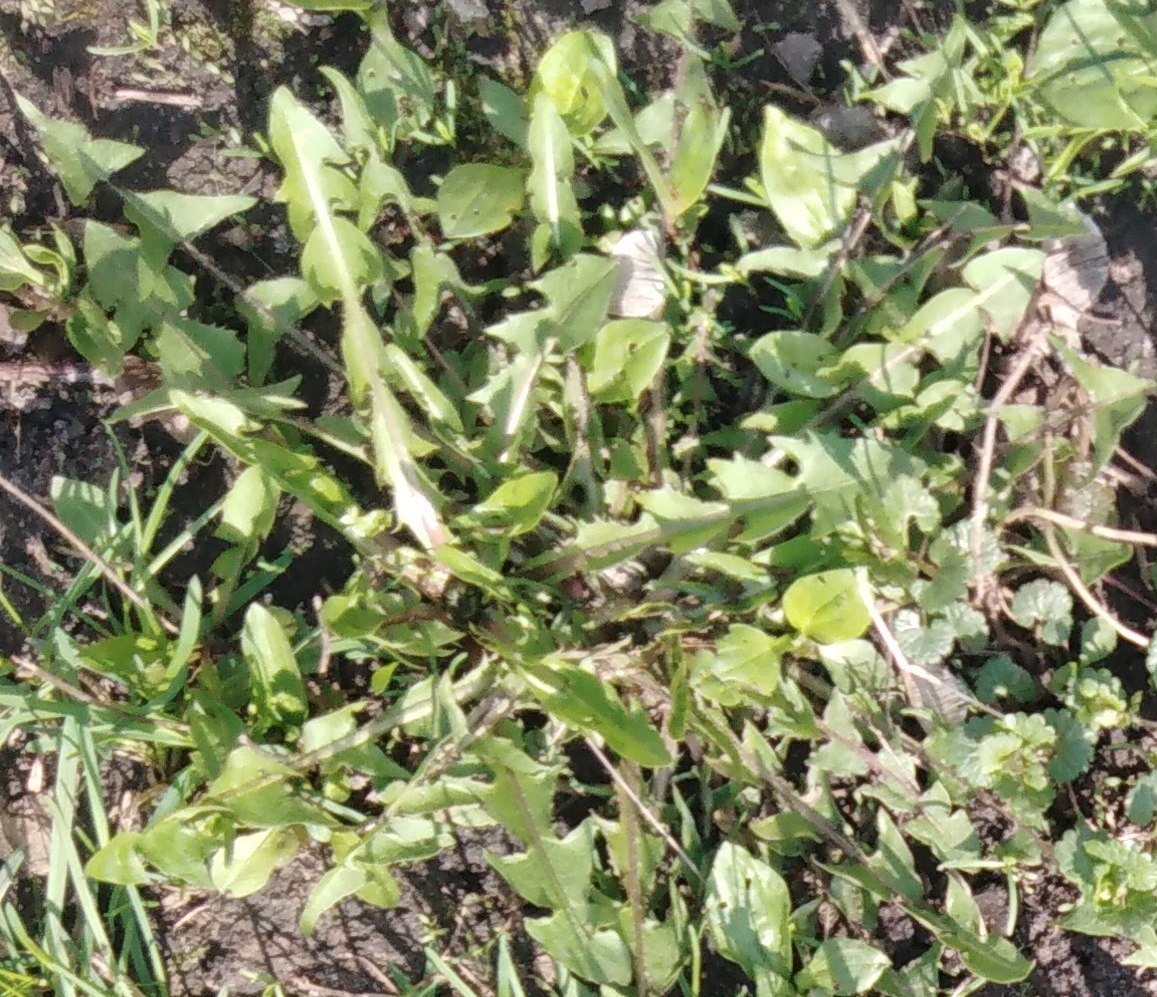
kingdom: Plantae
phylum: Tracheophyta
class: Magnoliopsida
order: Asterales
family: Asteraceae
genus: Taraxacum
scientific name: Taraxacum officinale
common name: Common dandelion
